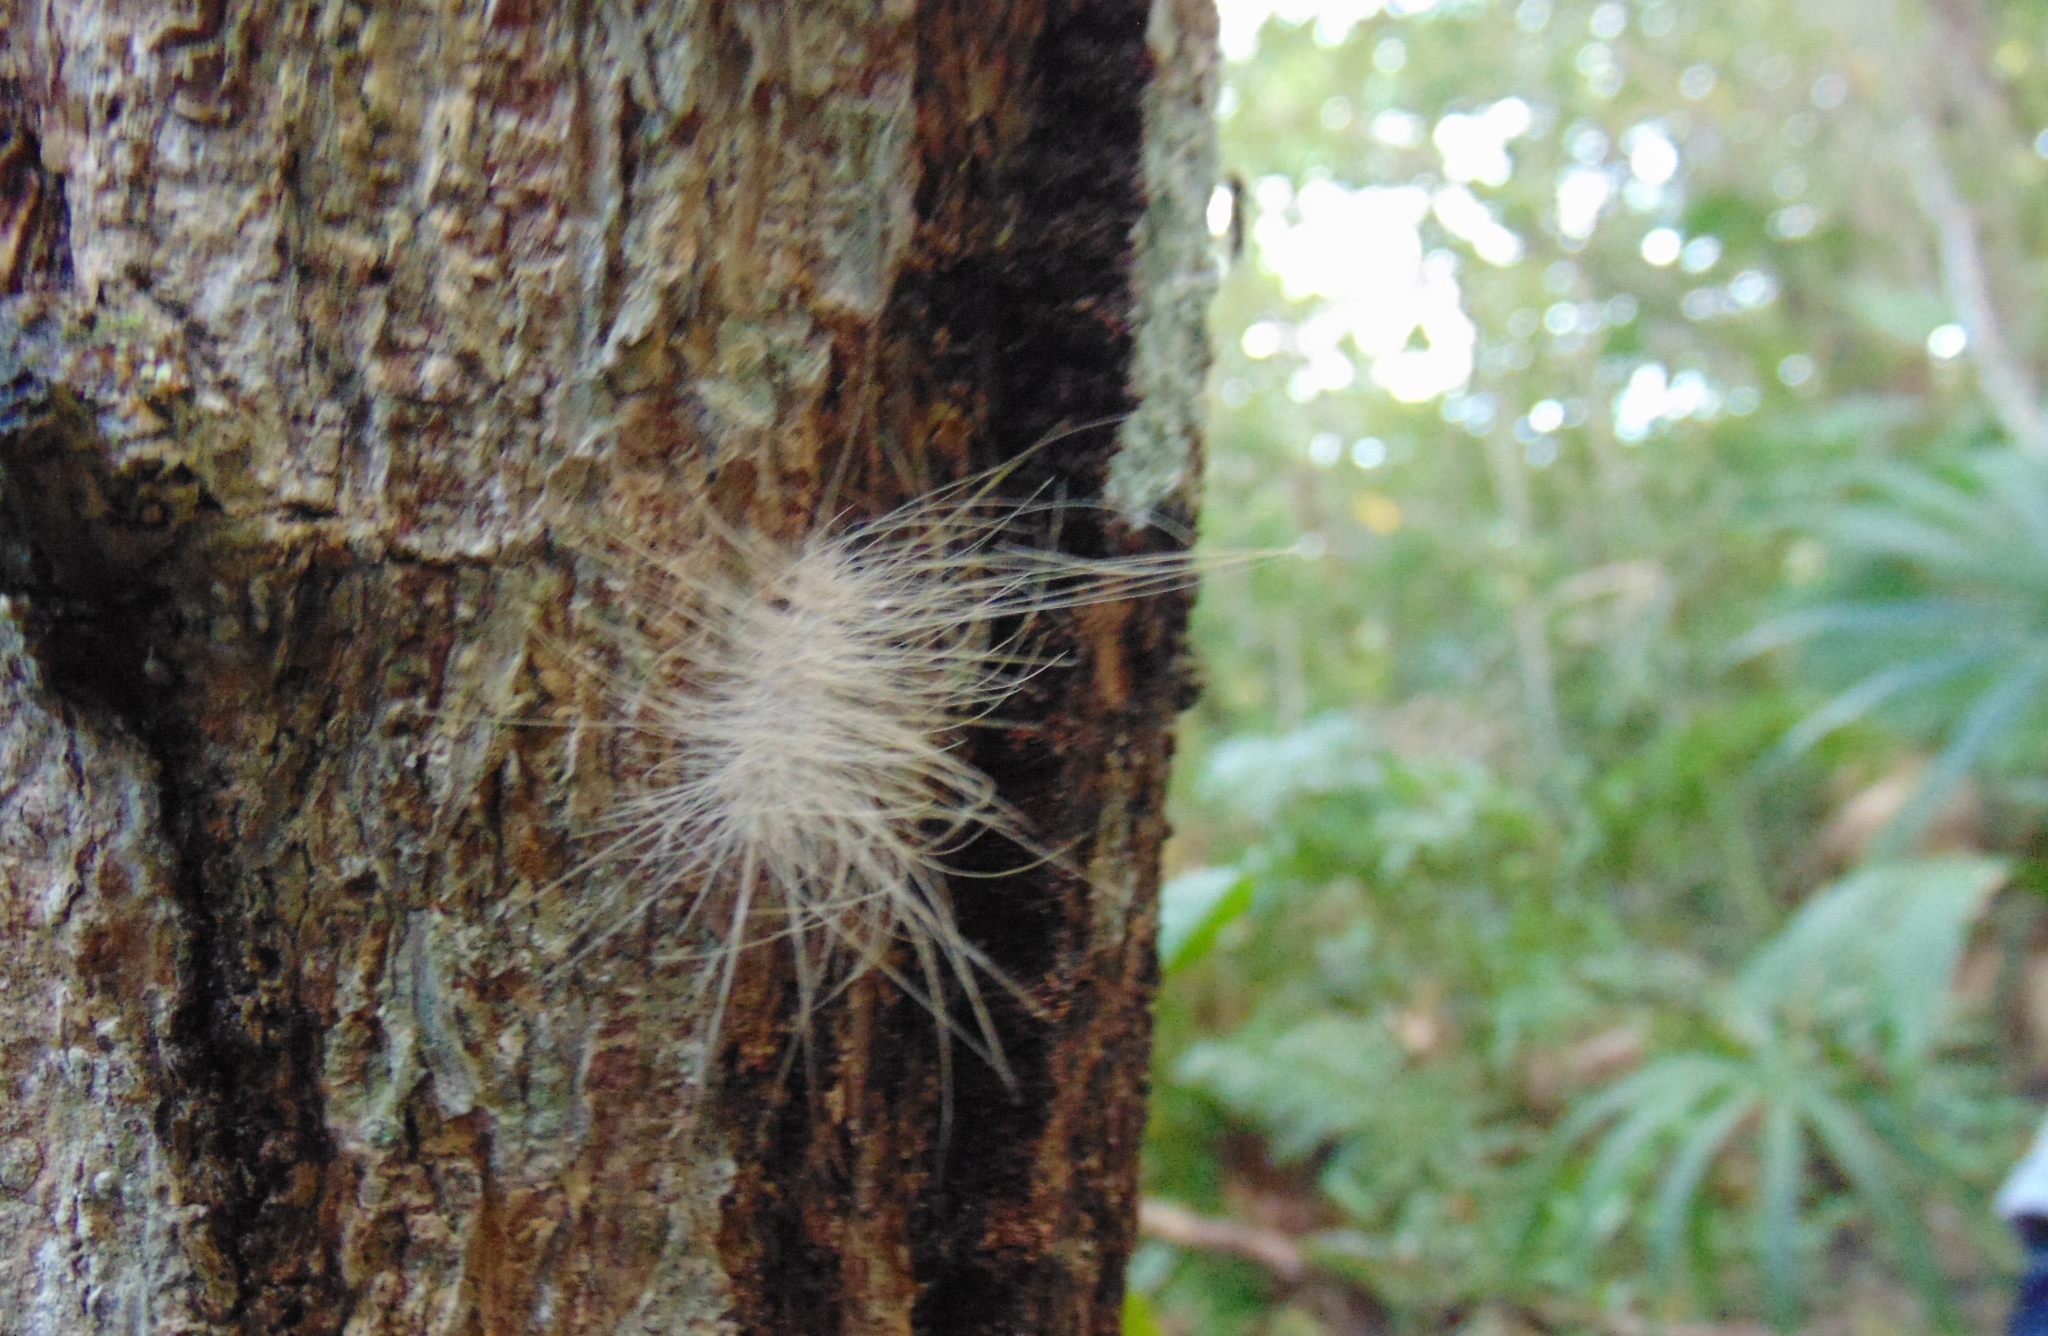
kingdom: Animalia
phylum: Arthropoda
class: Insecta
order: Lepidoptera
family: Erebidae
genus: Eudesmia
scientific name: Eudesmia menea
